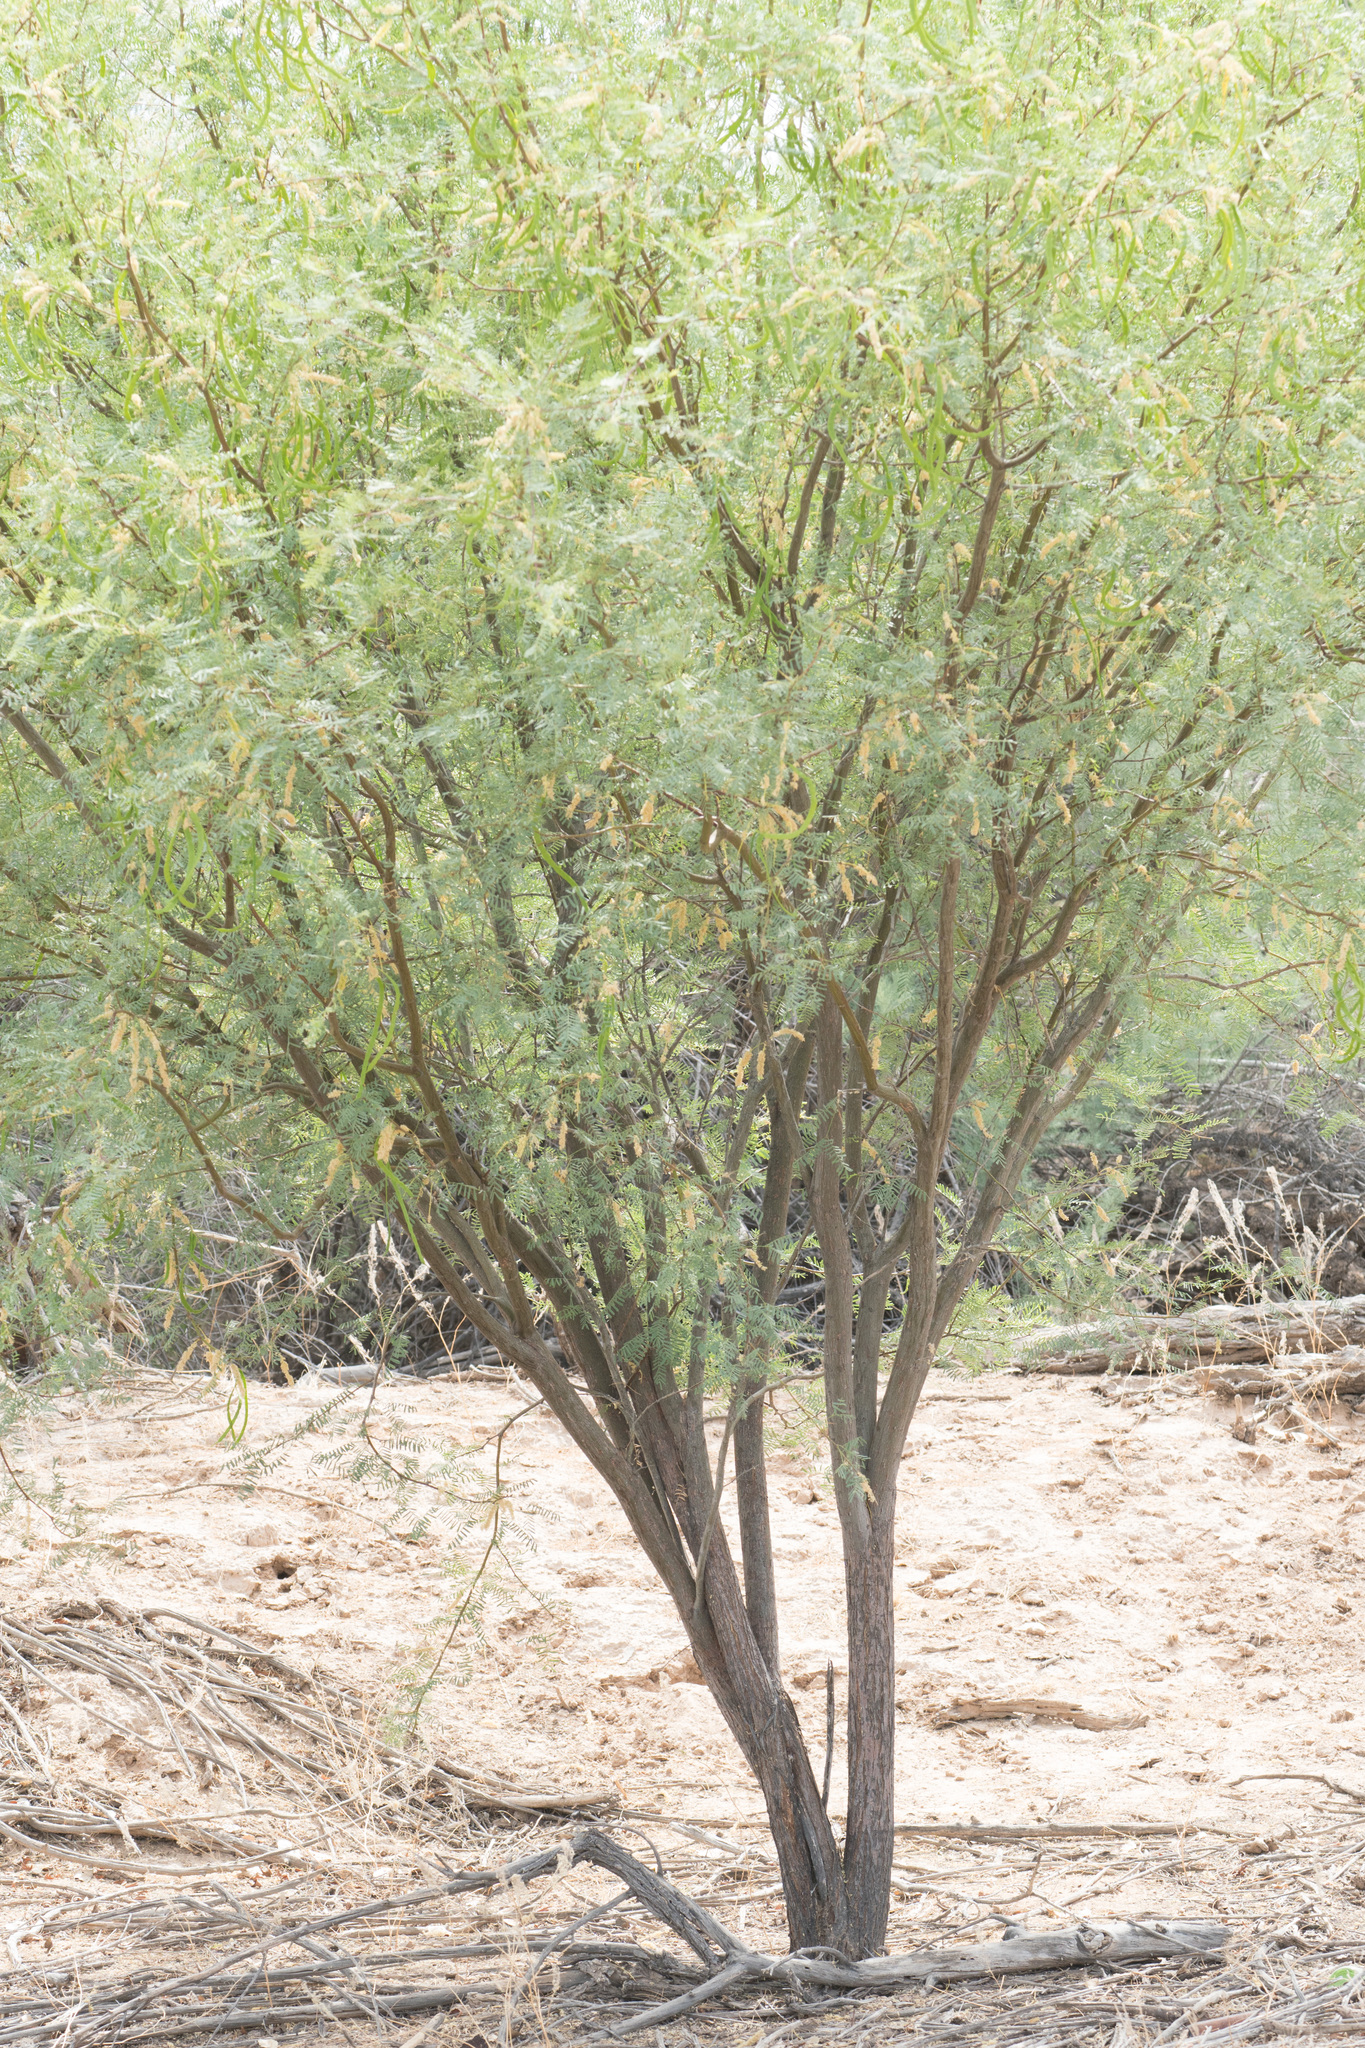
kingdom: Plantae
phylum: Tracheophyta
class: Magnoliopsida
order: Fabales
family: Fabaceae
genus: Prosopis
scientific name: Prosopis glandulosa
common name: Honey mesquite
